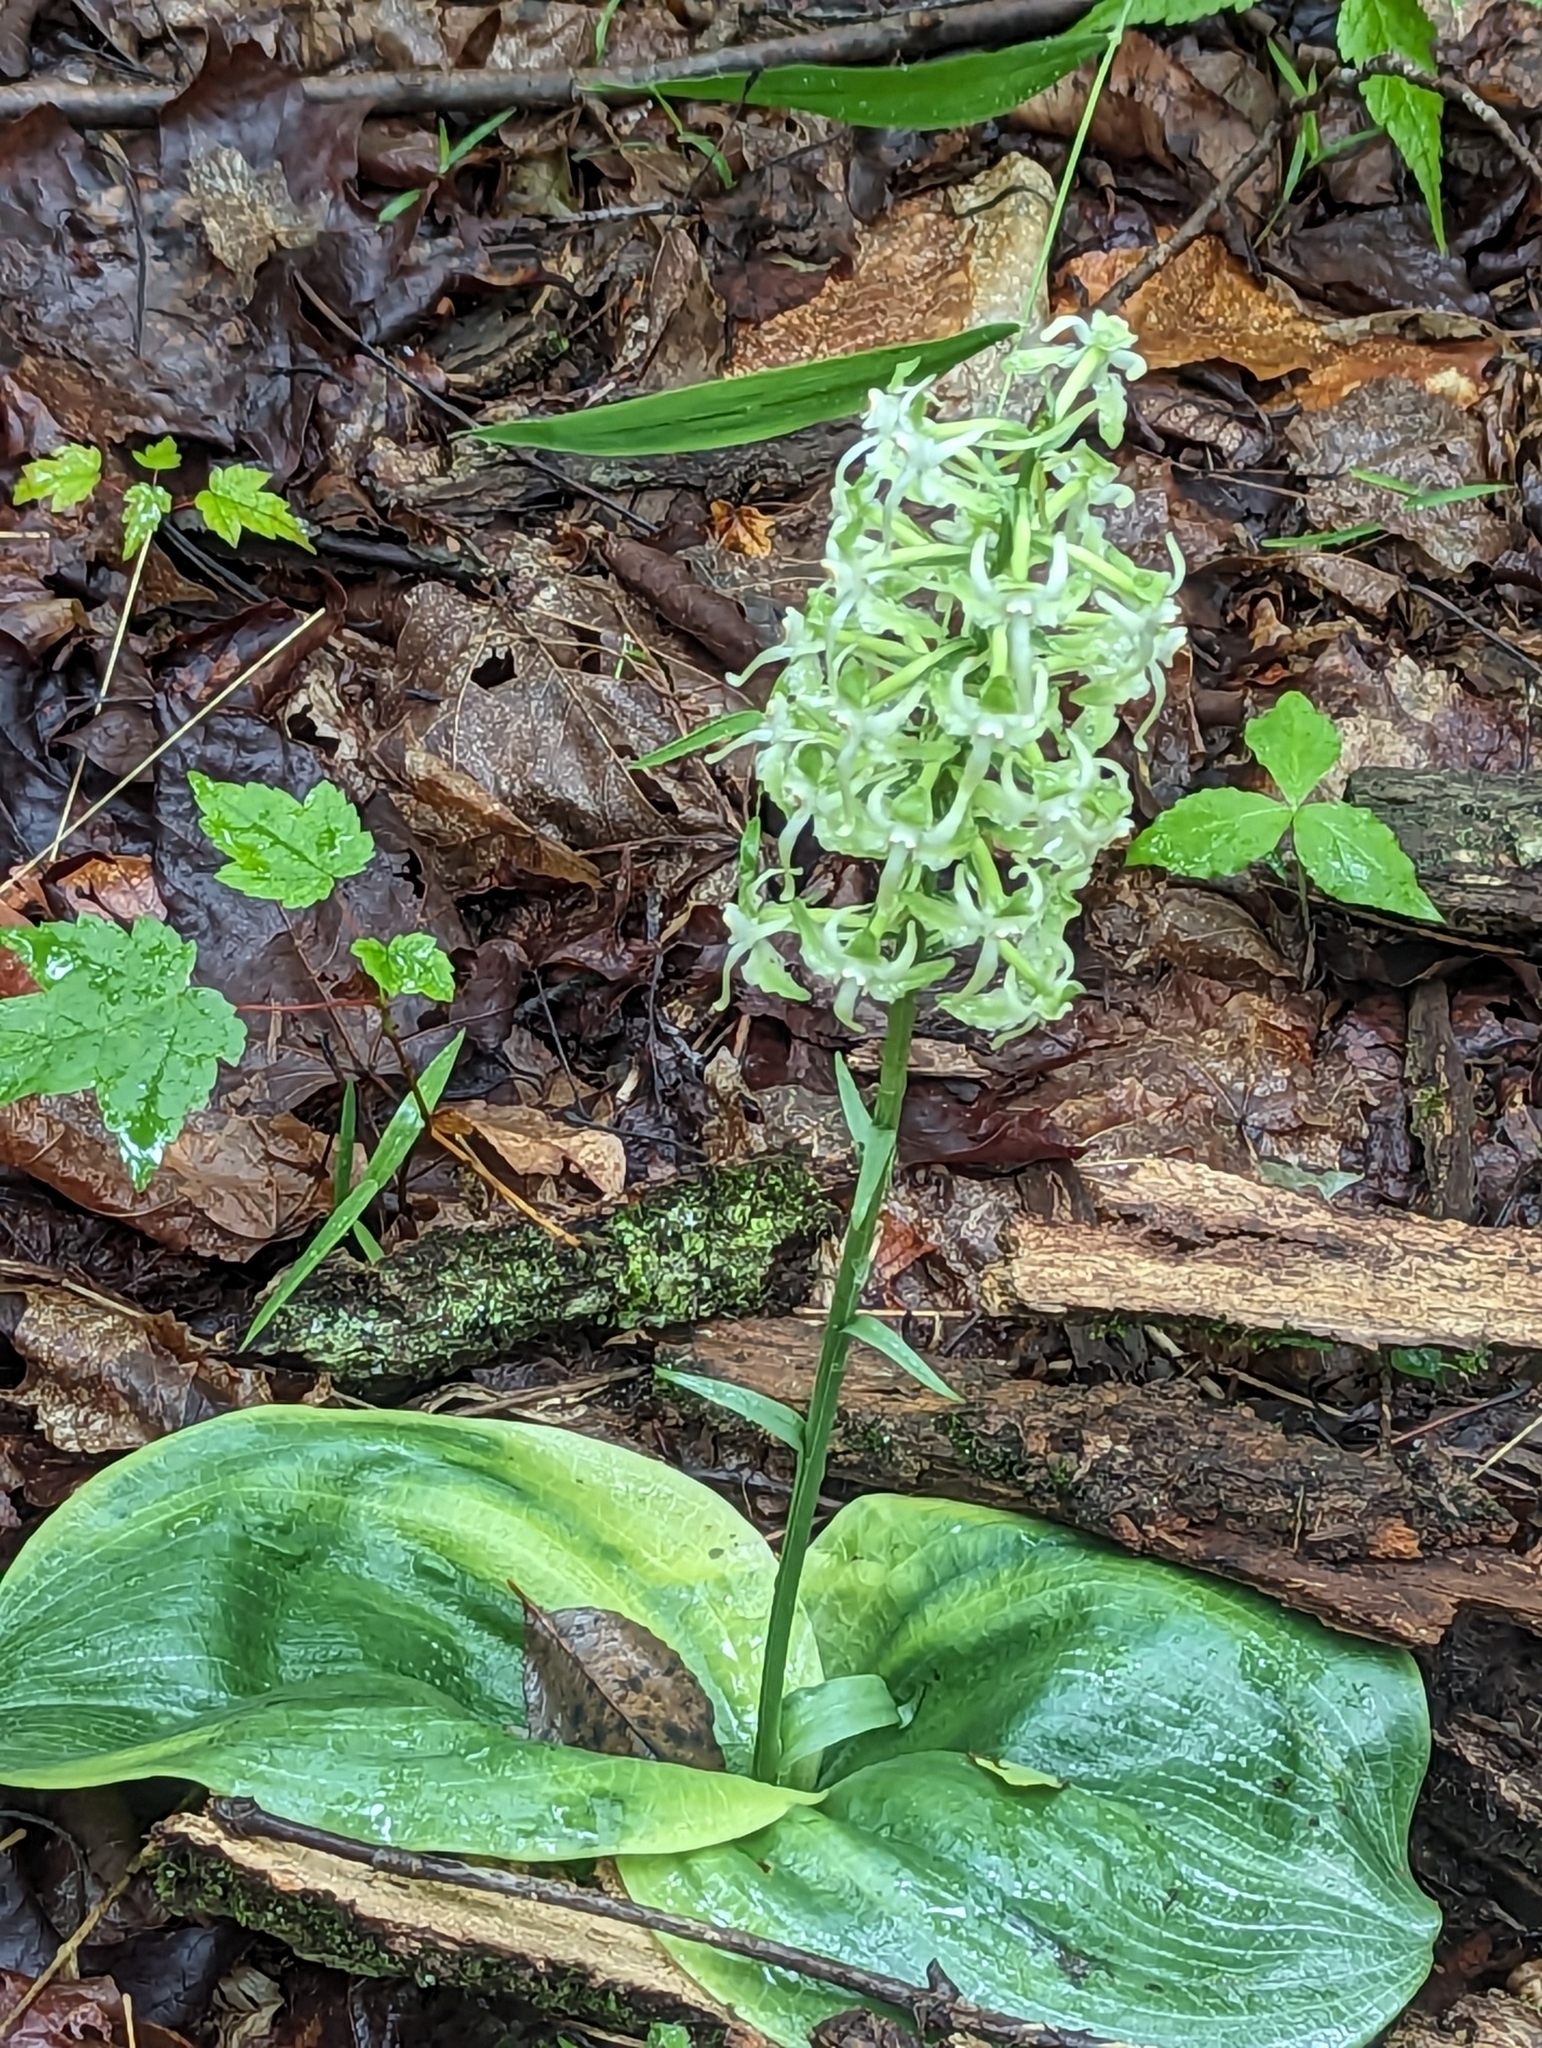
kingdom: Plantae
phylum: Tracheophyta
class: Liliopsida
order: Asparagales
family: Orchidaceae
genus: Platanthera
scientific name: Platanthera orbiculata
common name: Large round-leaved orchid
